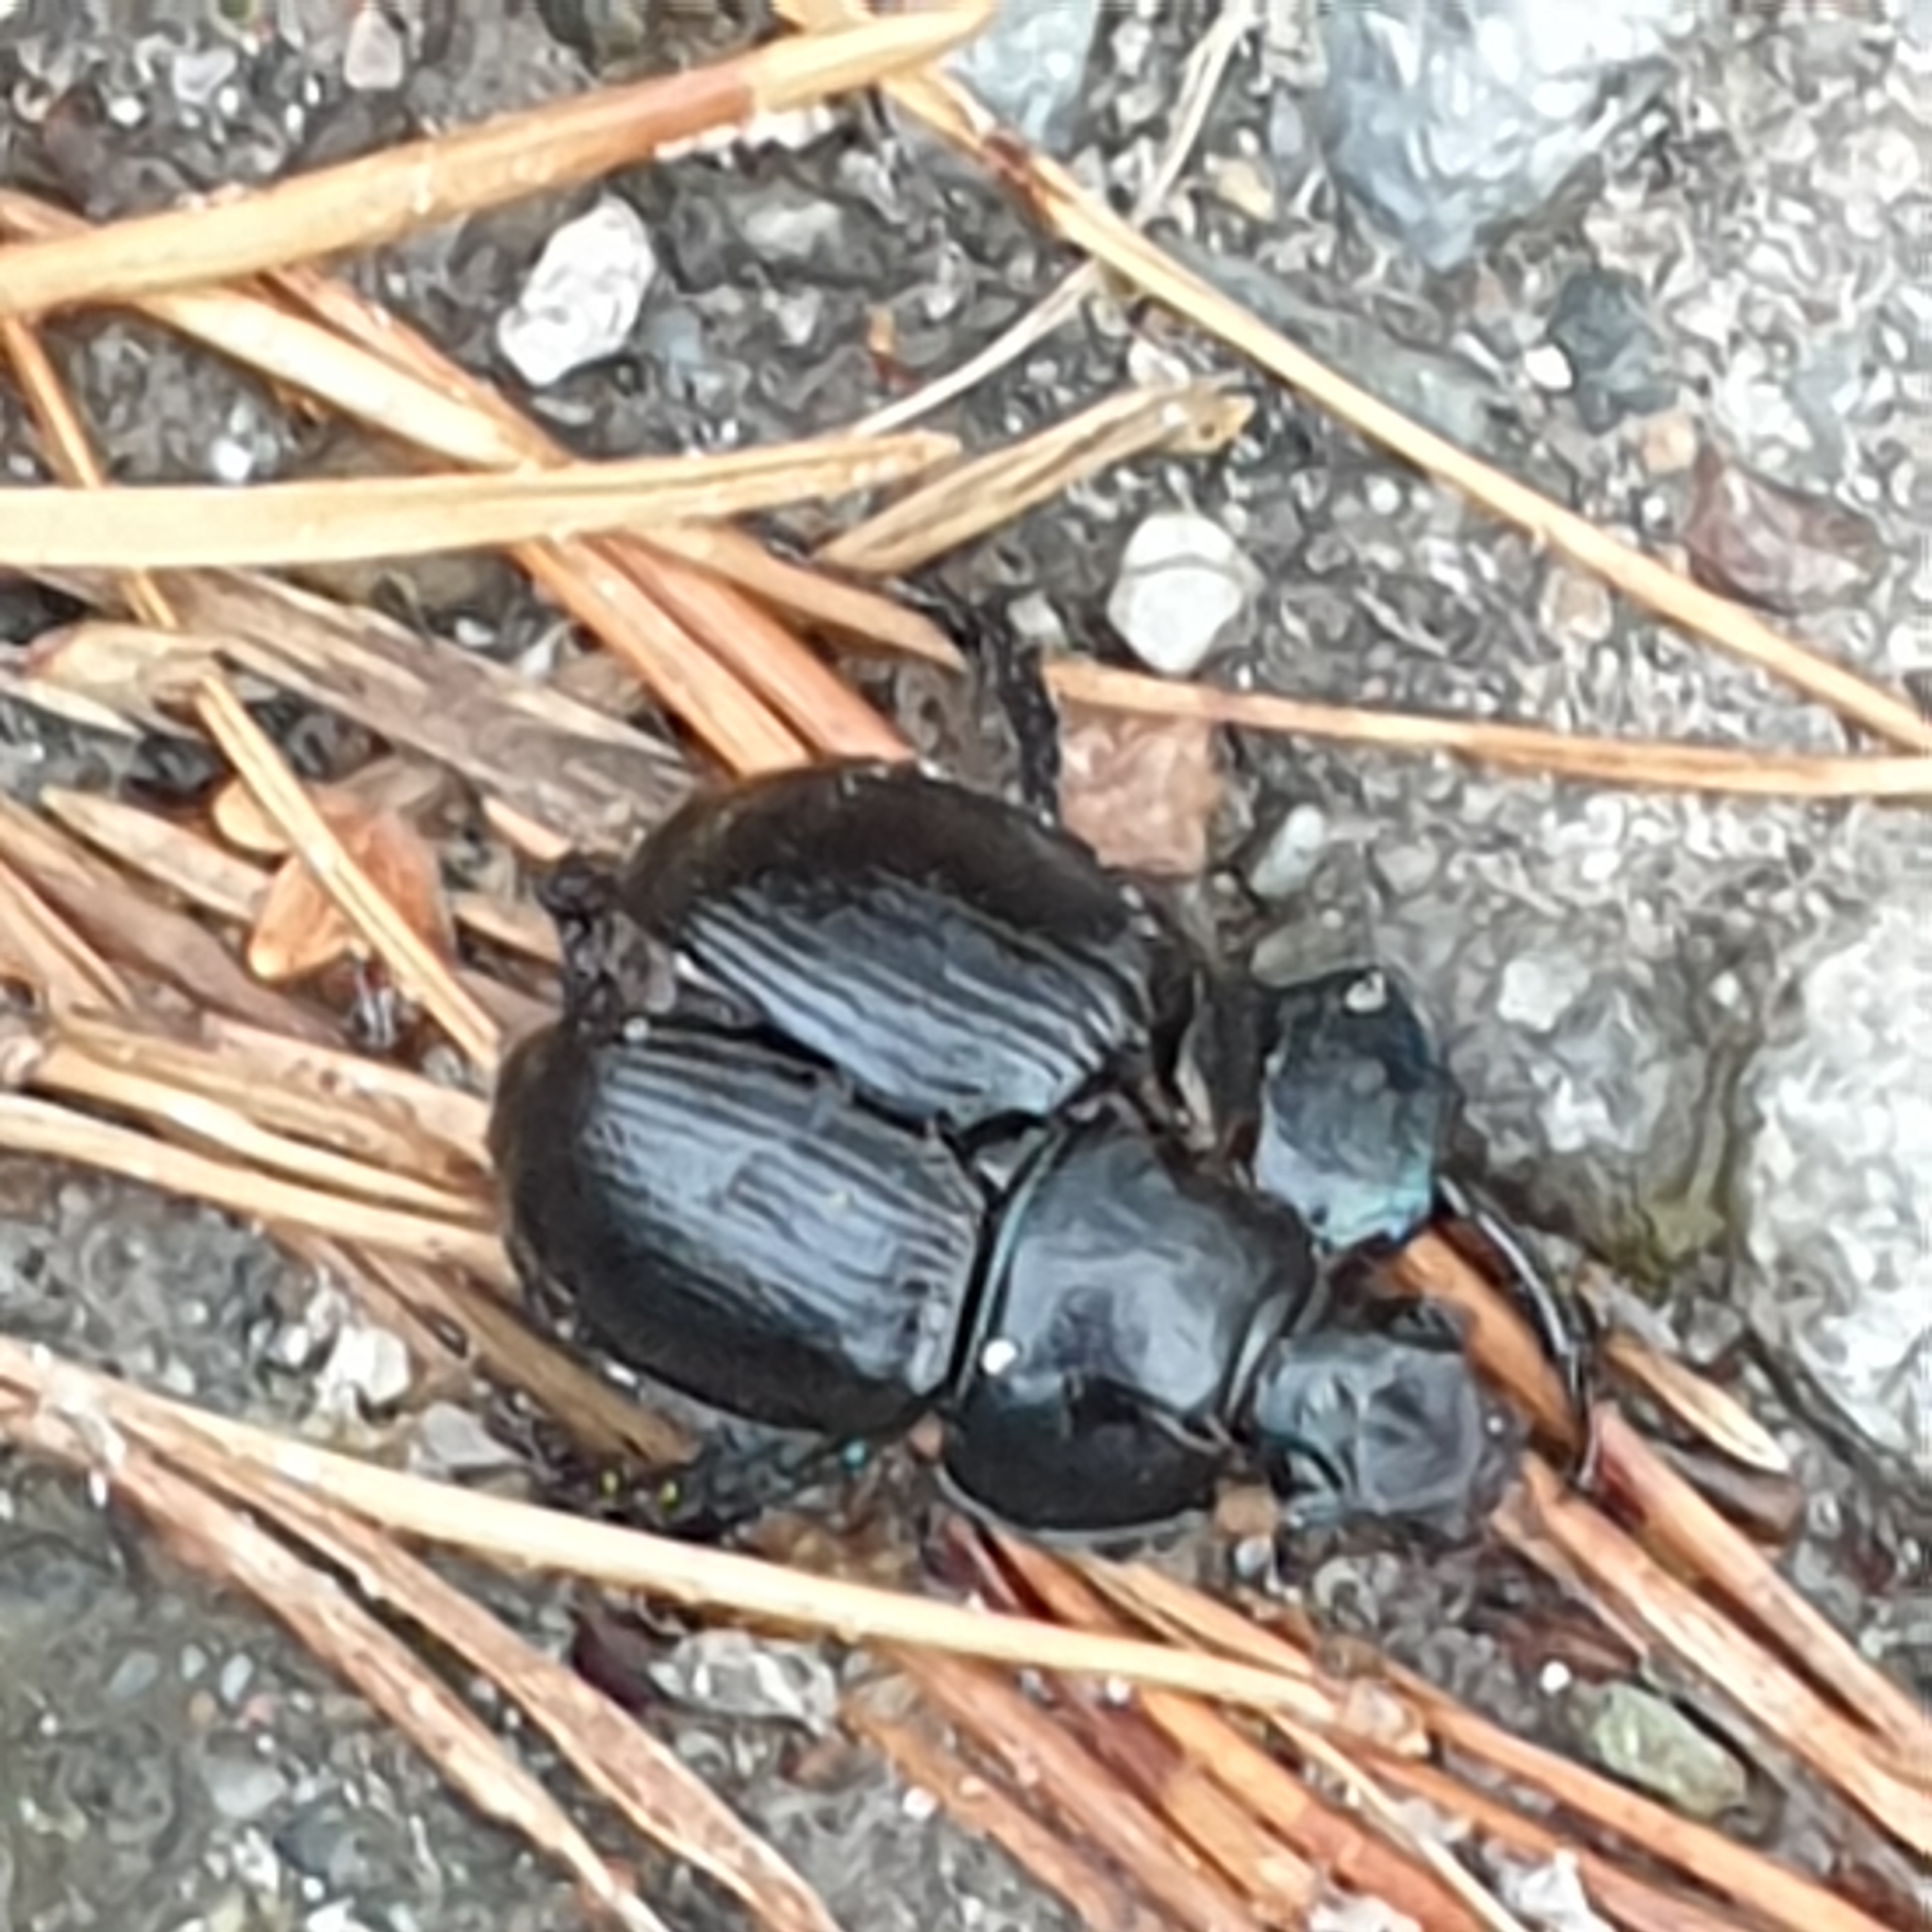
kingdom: Animalia
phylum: Arthropoda
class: Insecta
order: Coleoptera
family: Geotrupidae
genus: Anoplotrupes
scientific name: Anoplotrupes stercorosus
